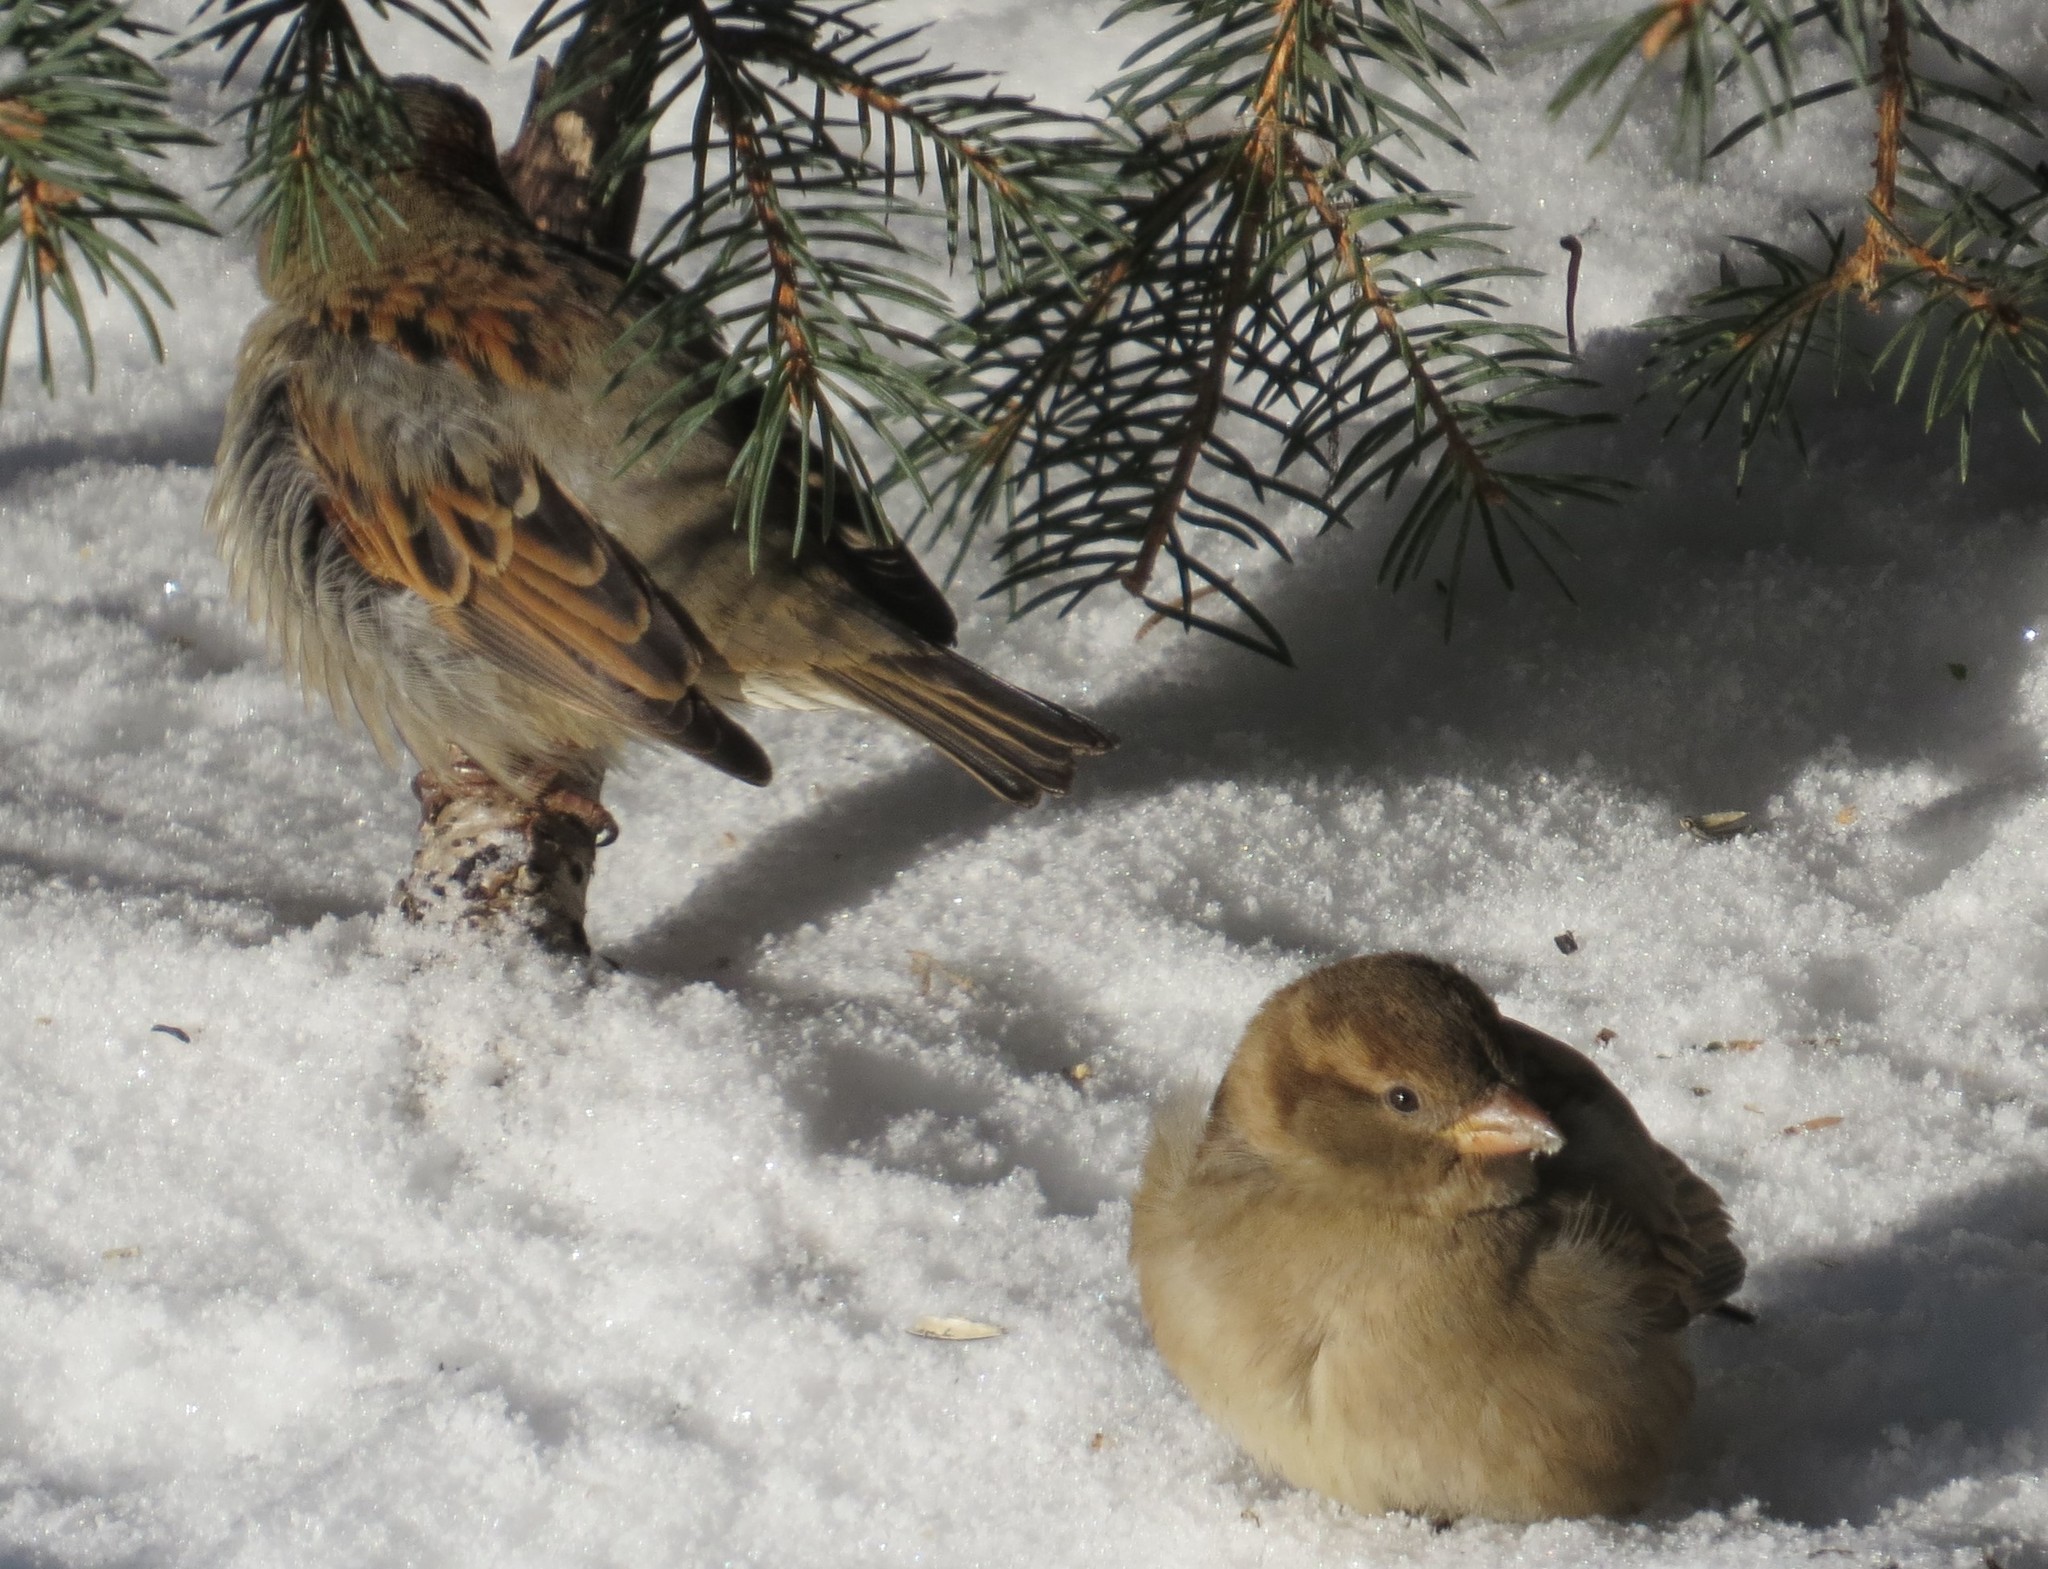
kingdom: Animalia
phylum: Chordata
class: Aves
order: Passeriformes
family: Passeridae
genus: Passer
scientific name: Passer domesticus
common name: House sparrow
